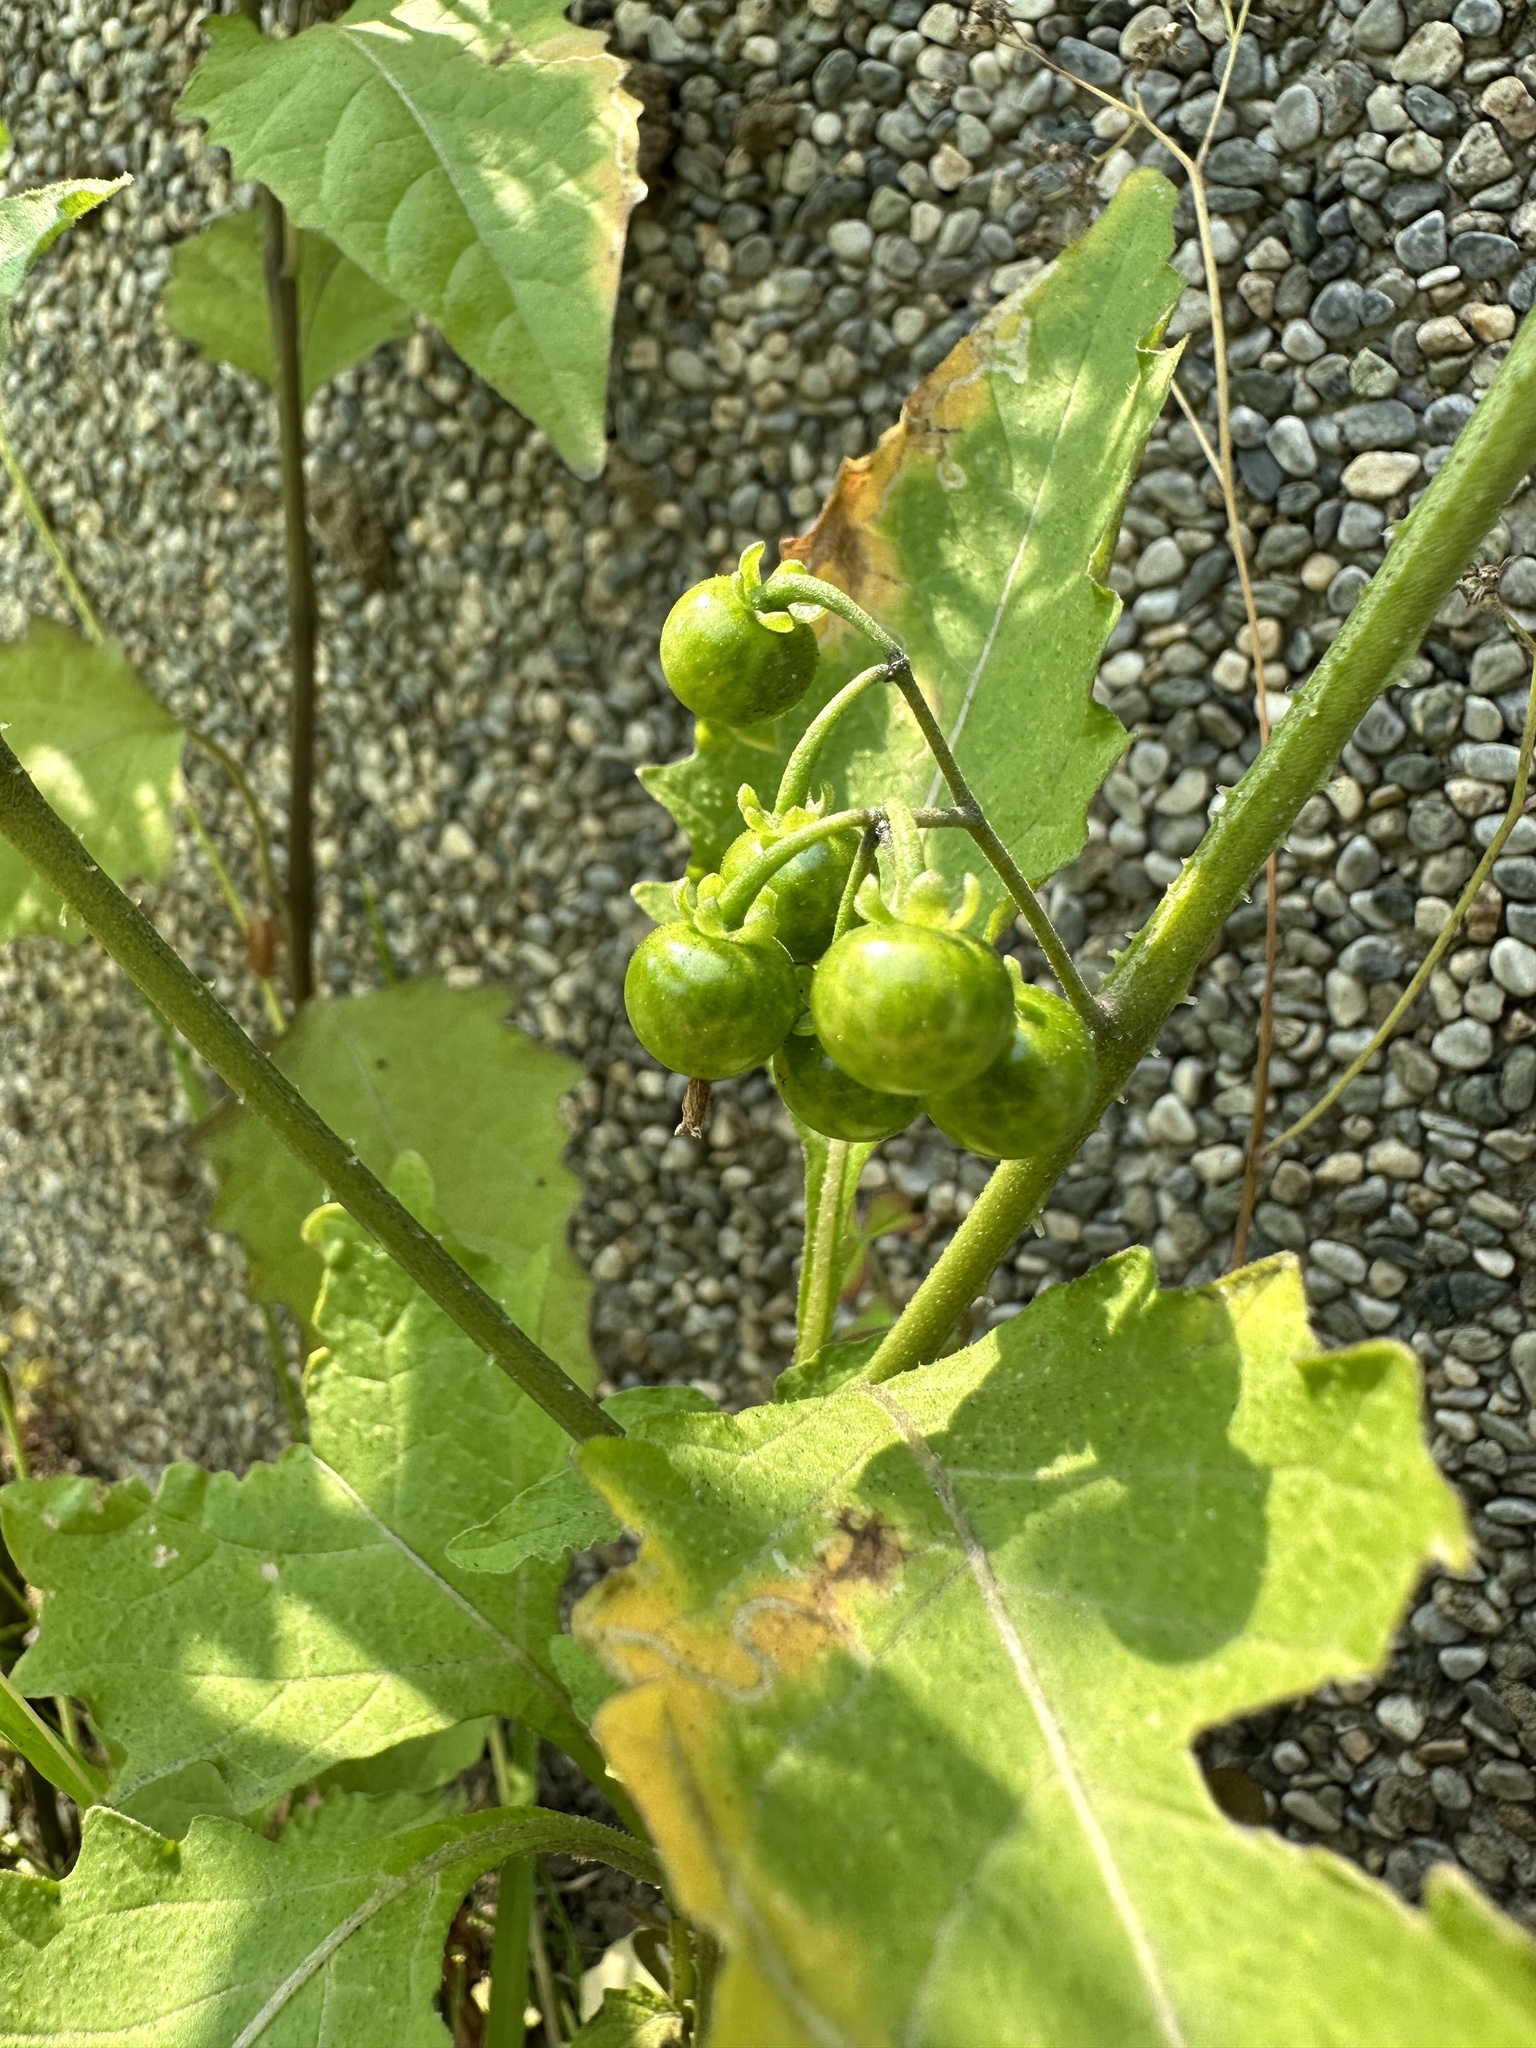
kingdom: Plantae
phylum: Tracheophyta
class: Magnoliopsida
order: Solanales
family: Solanaceae
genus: Solanum
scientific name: Solanum americanum
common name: American black nightshade
